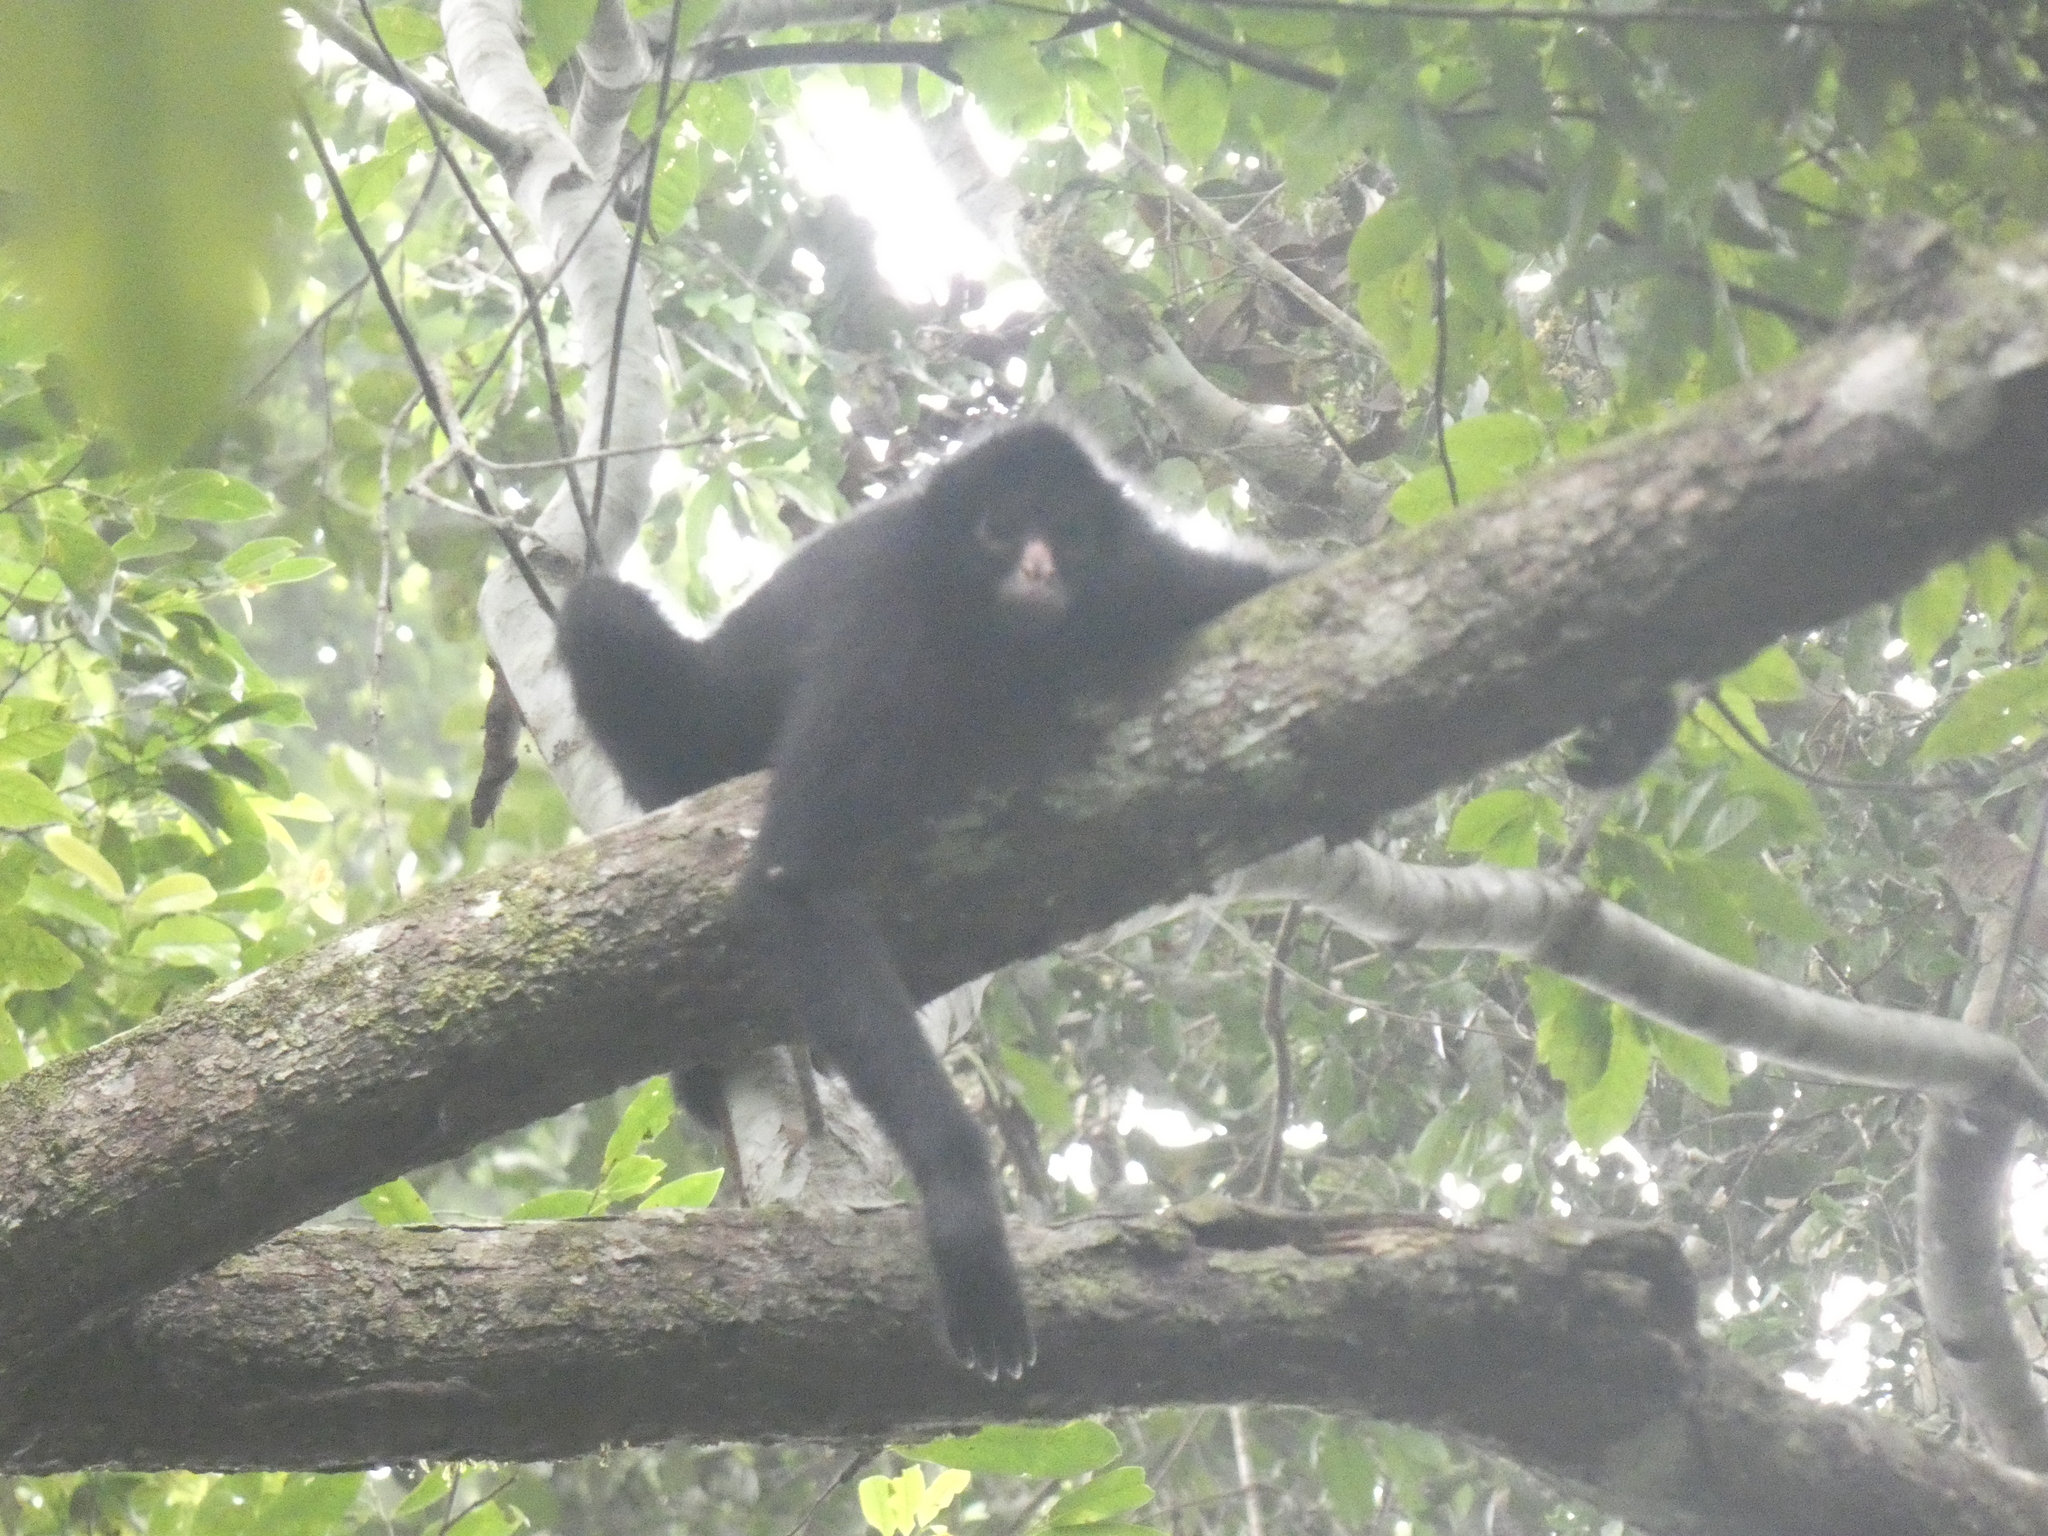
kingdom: Animalia
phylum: Chordata
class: Mammalia
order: Primates
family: Atelidae
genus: Ateles
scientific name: Ateles chamek
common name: Peruvian spider monkey
